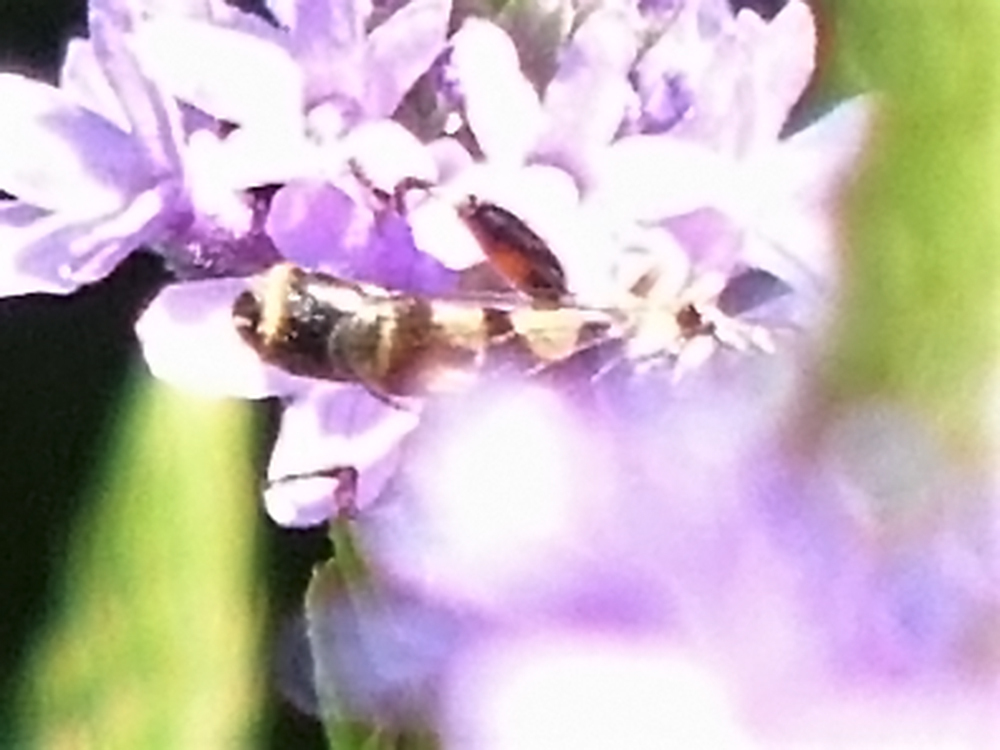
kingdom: Animalia
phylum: Arthropoda
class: Insecta
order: Diptera
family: Syrphidae
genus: Syritta
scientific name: Syritta pipiens
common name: Hover fly
